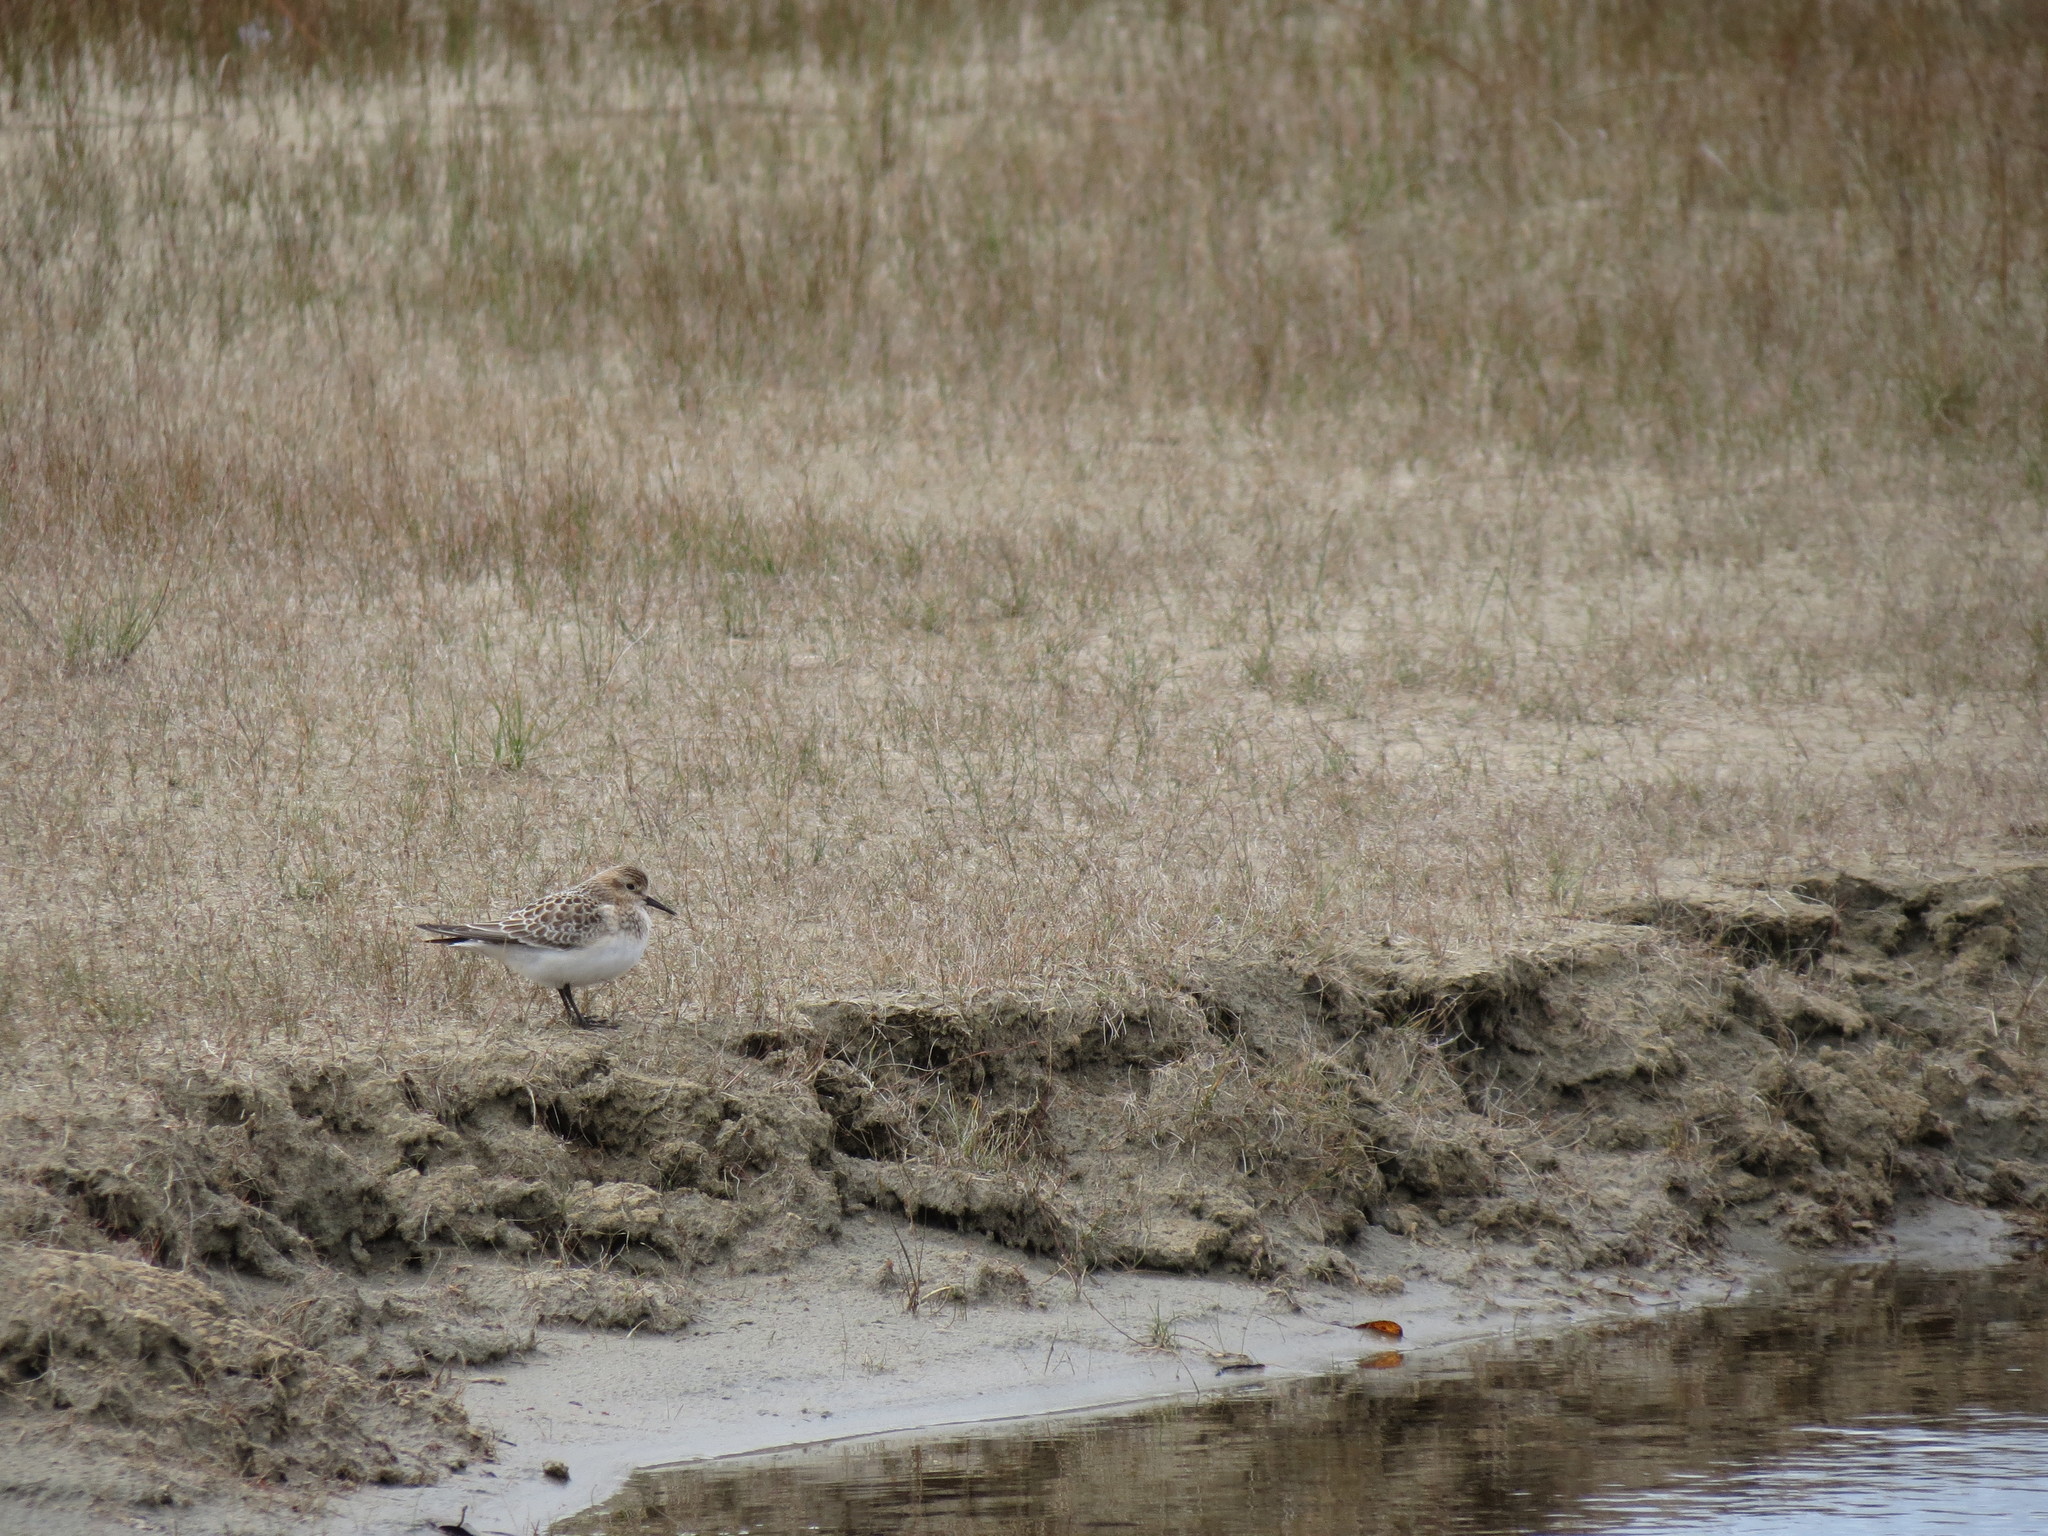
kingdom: Animalia
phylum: Chordata
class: Aves
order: Charadriiformes
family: Scolopacidae
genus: Calidris
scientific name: Calidris bairdii
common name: Baird's sandpiper
